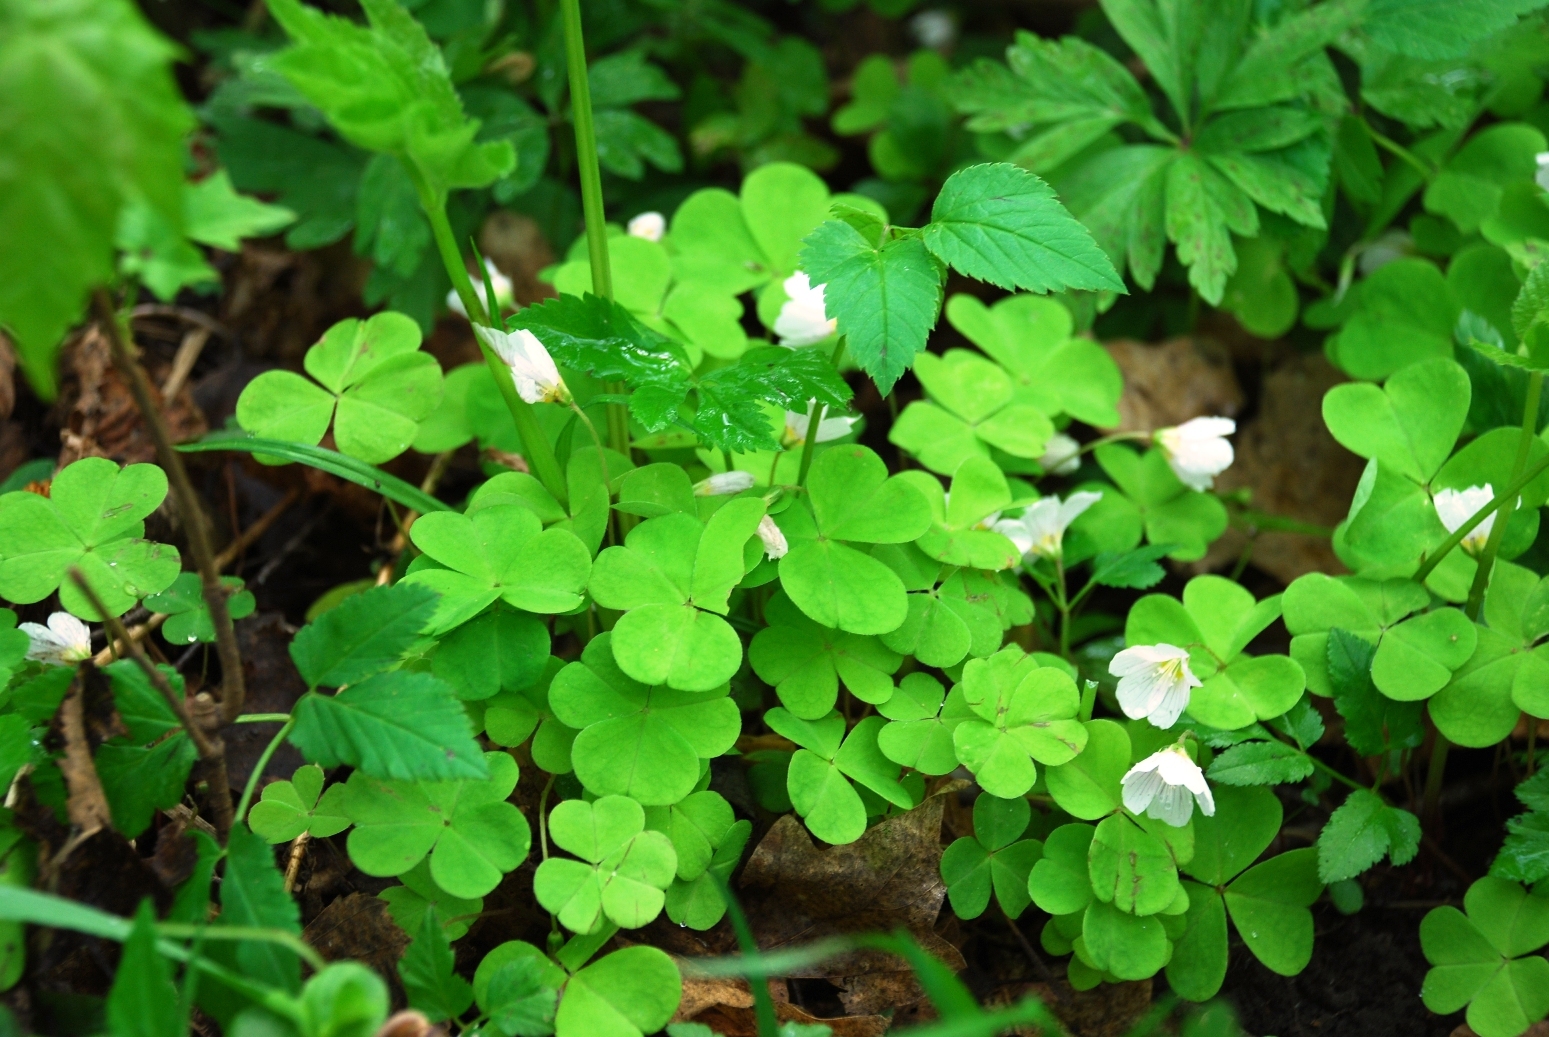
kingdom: Plantae
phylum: Tracheophyta
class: Magnoliopsida
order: Oxalidales
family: Oxalidaceae
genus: Oxalis
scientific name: Oxalis acetosella
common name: Wood-sorrel
